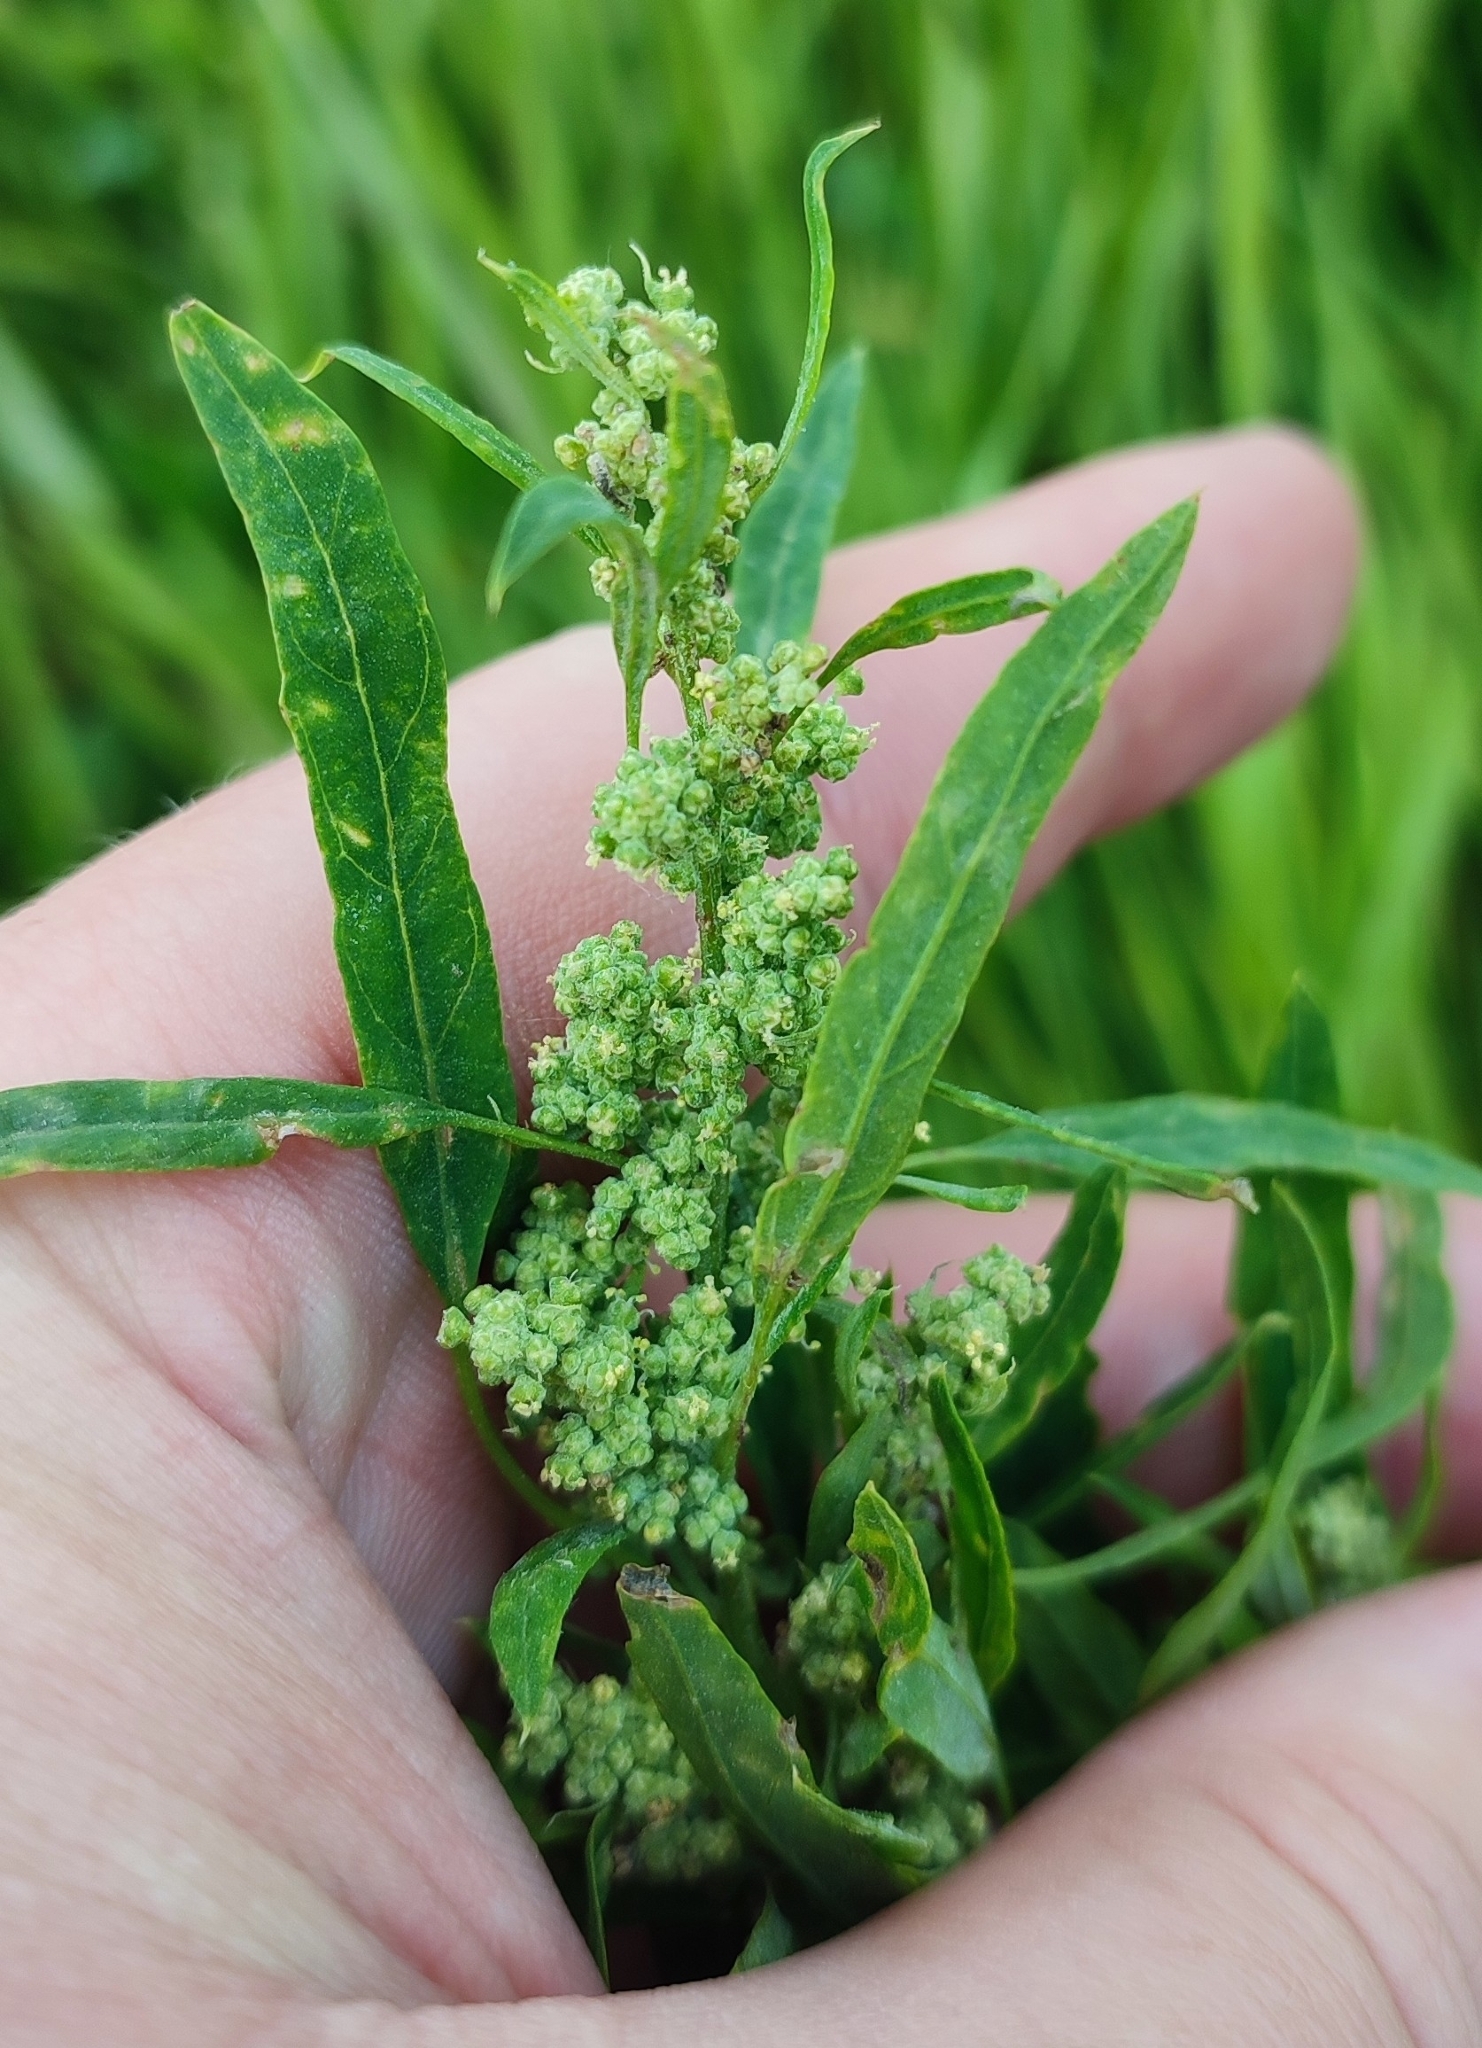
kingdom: Plantae
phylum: Tracheophyta
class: Magnoliopsida
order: Caryophyllales
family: Amaranthaceae
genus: Chenopodium
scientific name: Chenopodium album
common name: Fat-hen
